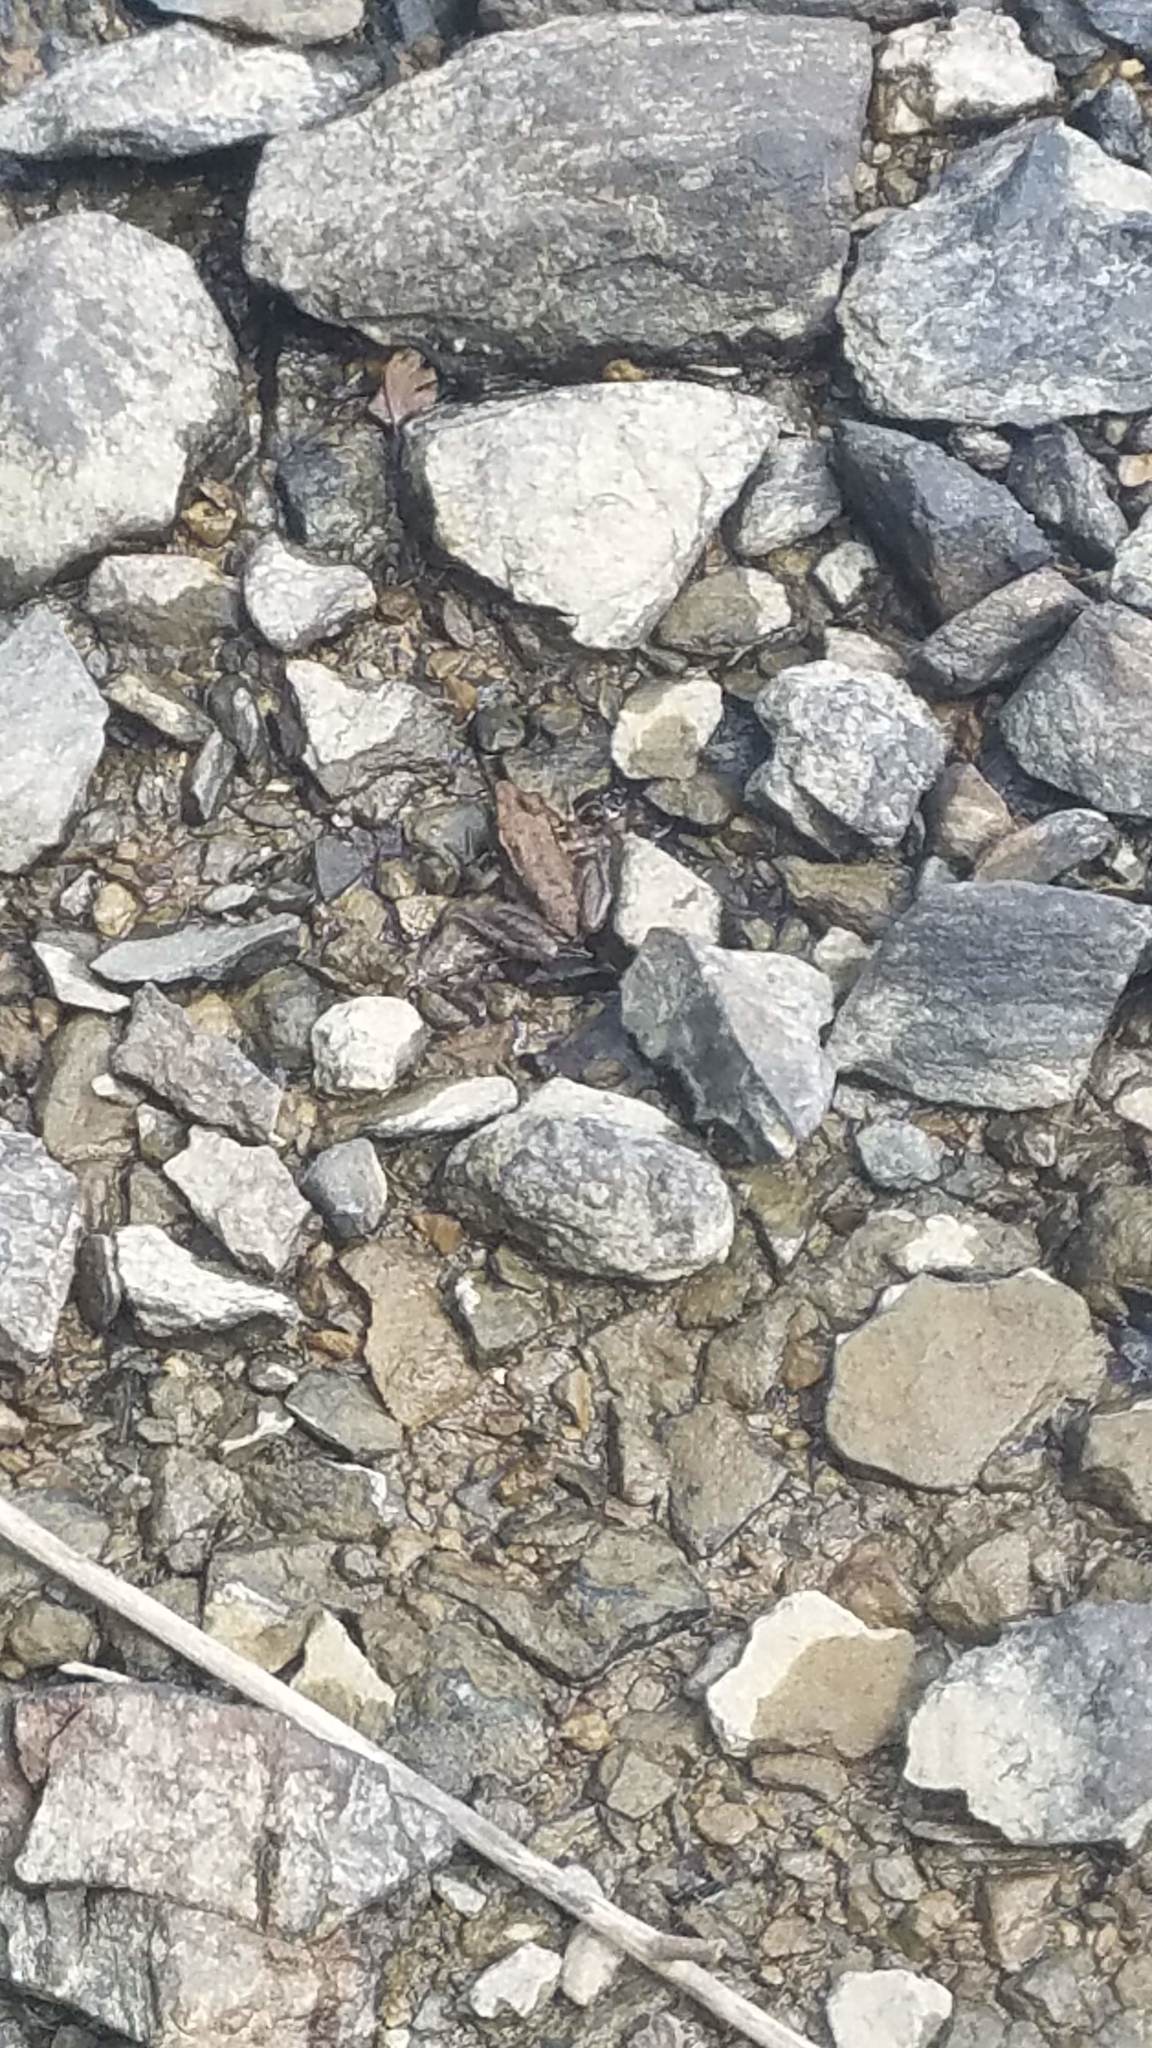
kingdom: Animalia
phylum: Chordata
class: Amphibia
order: Anura
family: Ranidae
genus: Lithobates
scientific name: Lithobates clamitans
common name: Green frog
